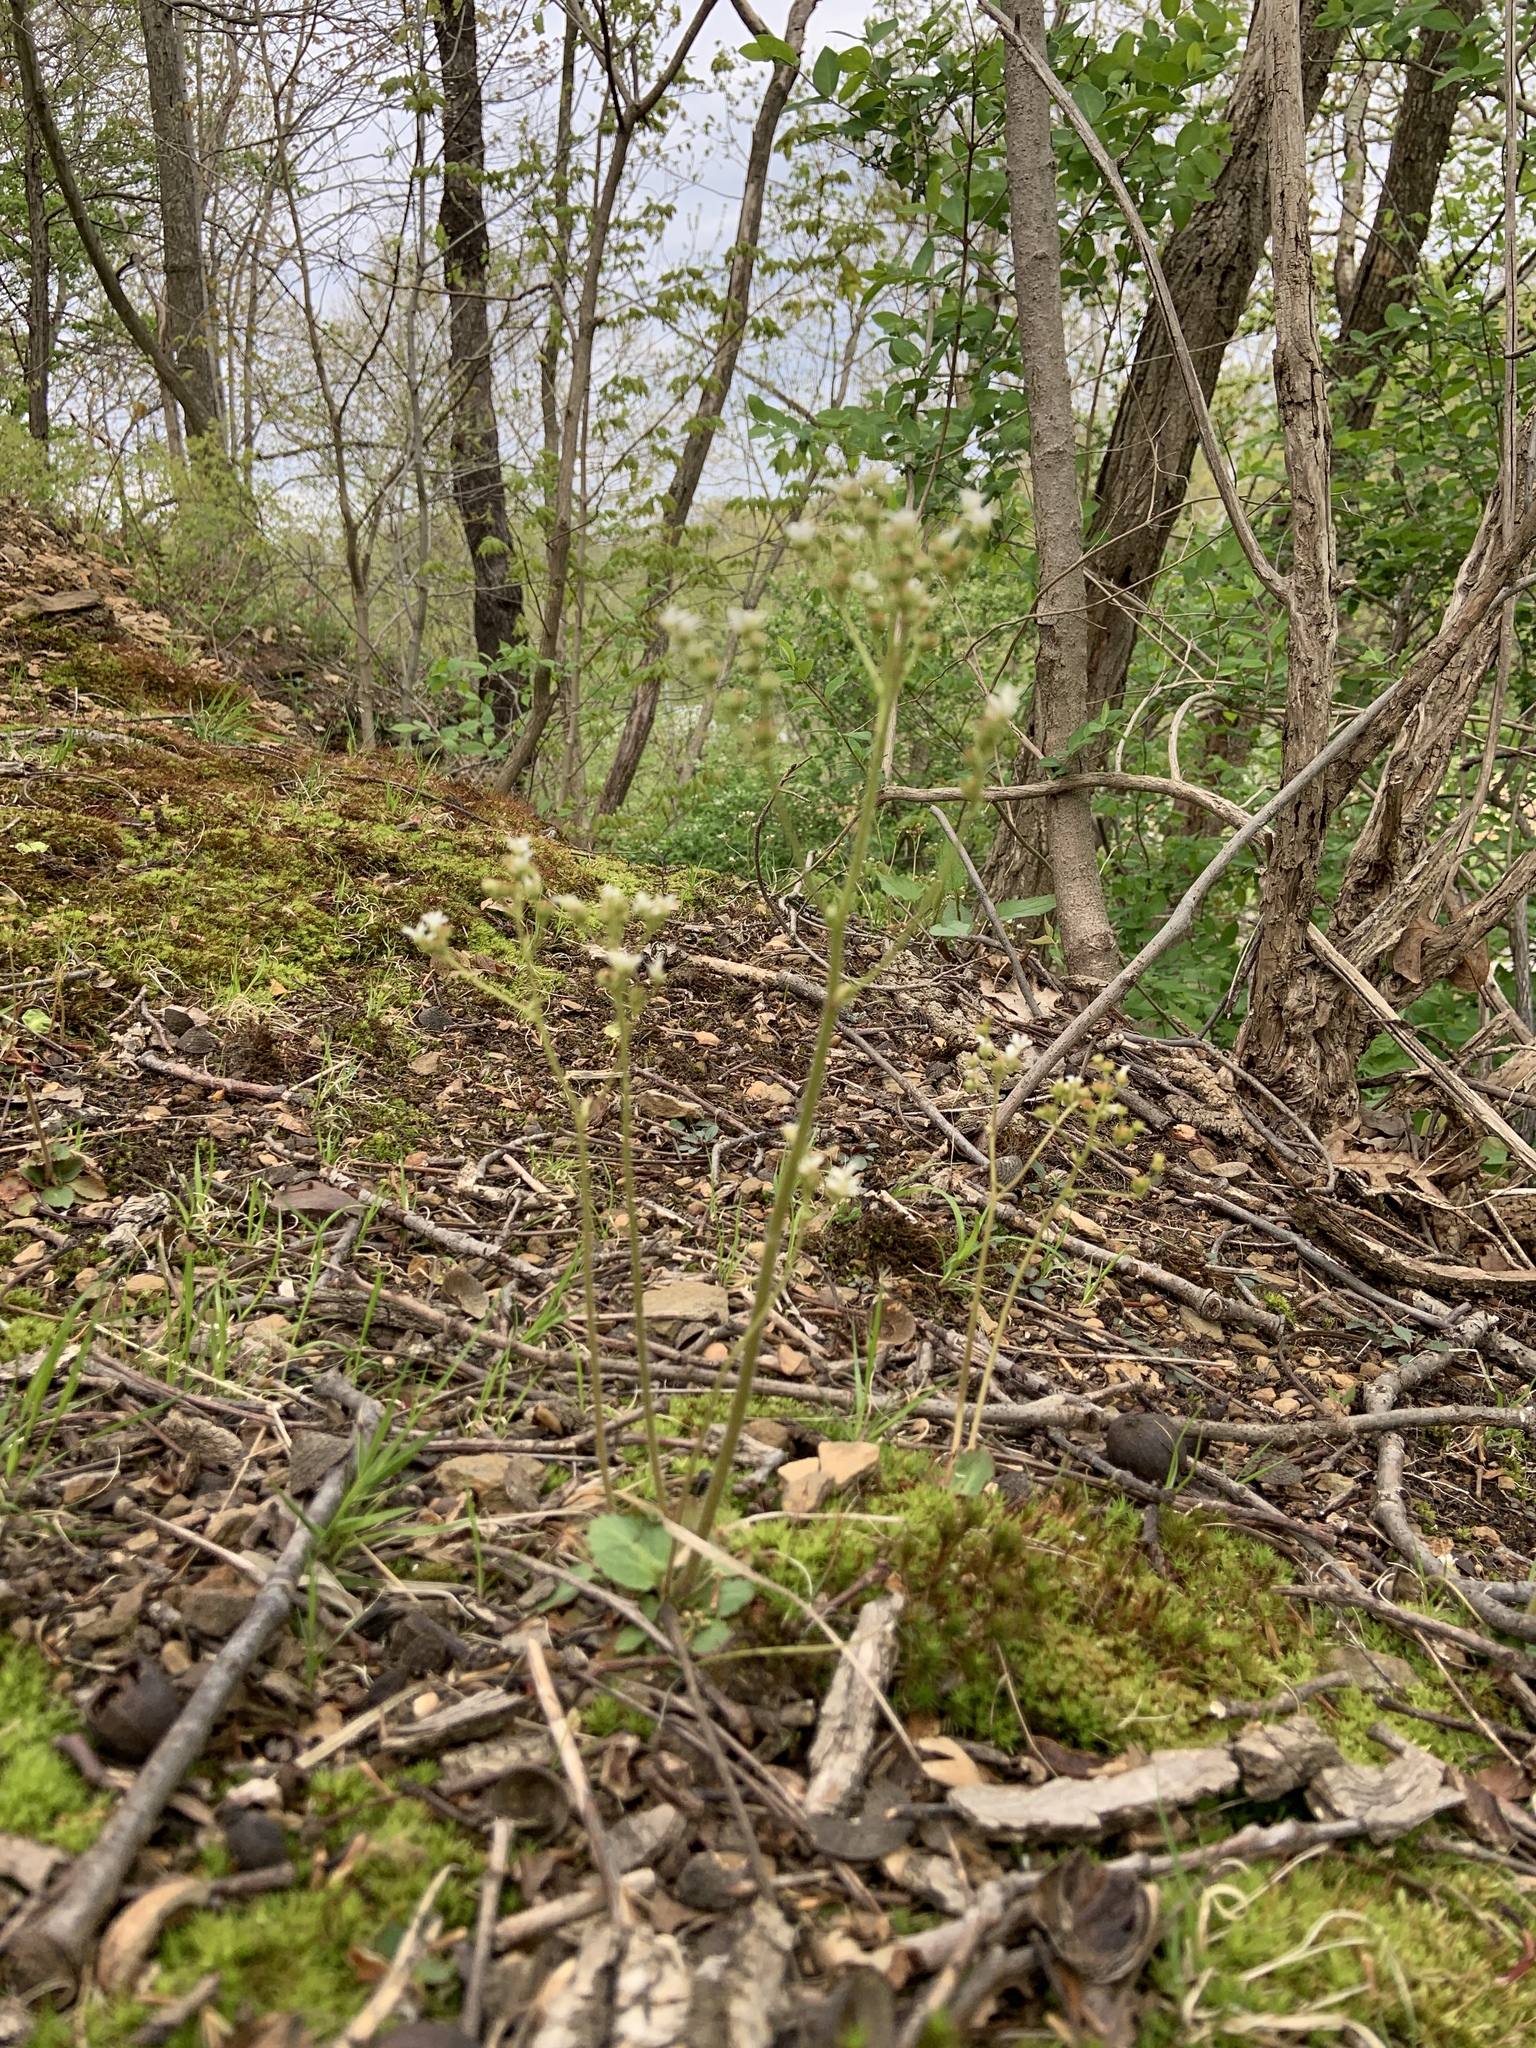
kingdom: Plantae
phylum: Tracheophyta
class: Magnoliopsida
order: Saxifragales
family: Saxifragaceae
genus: Micranthes
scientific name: Micranthes virginiensis
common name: Early saxifrage
